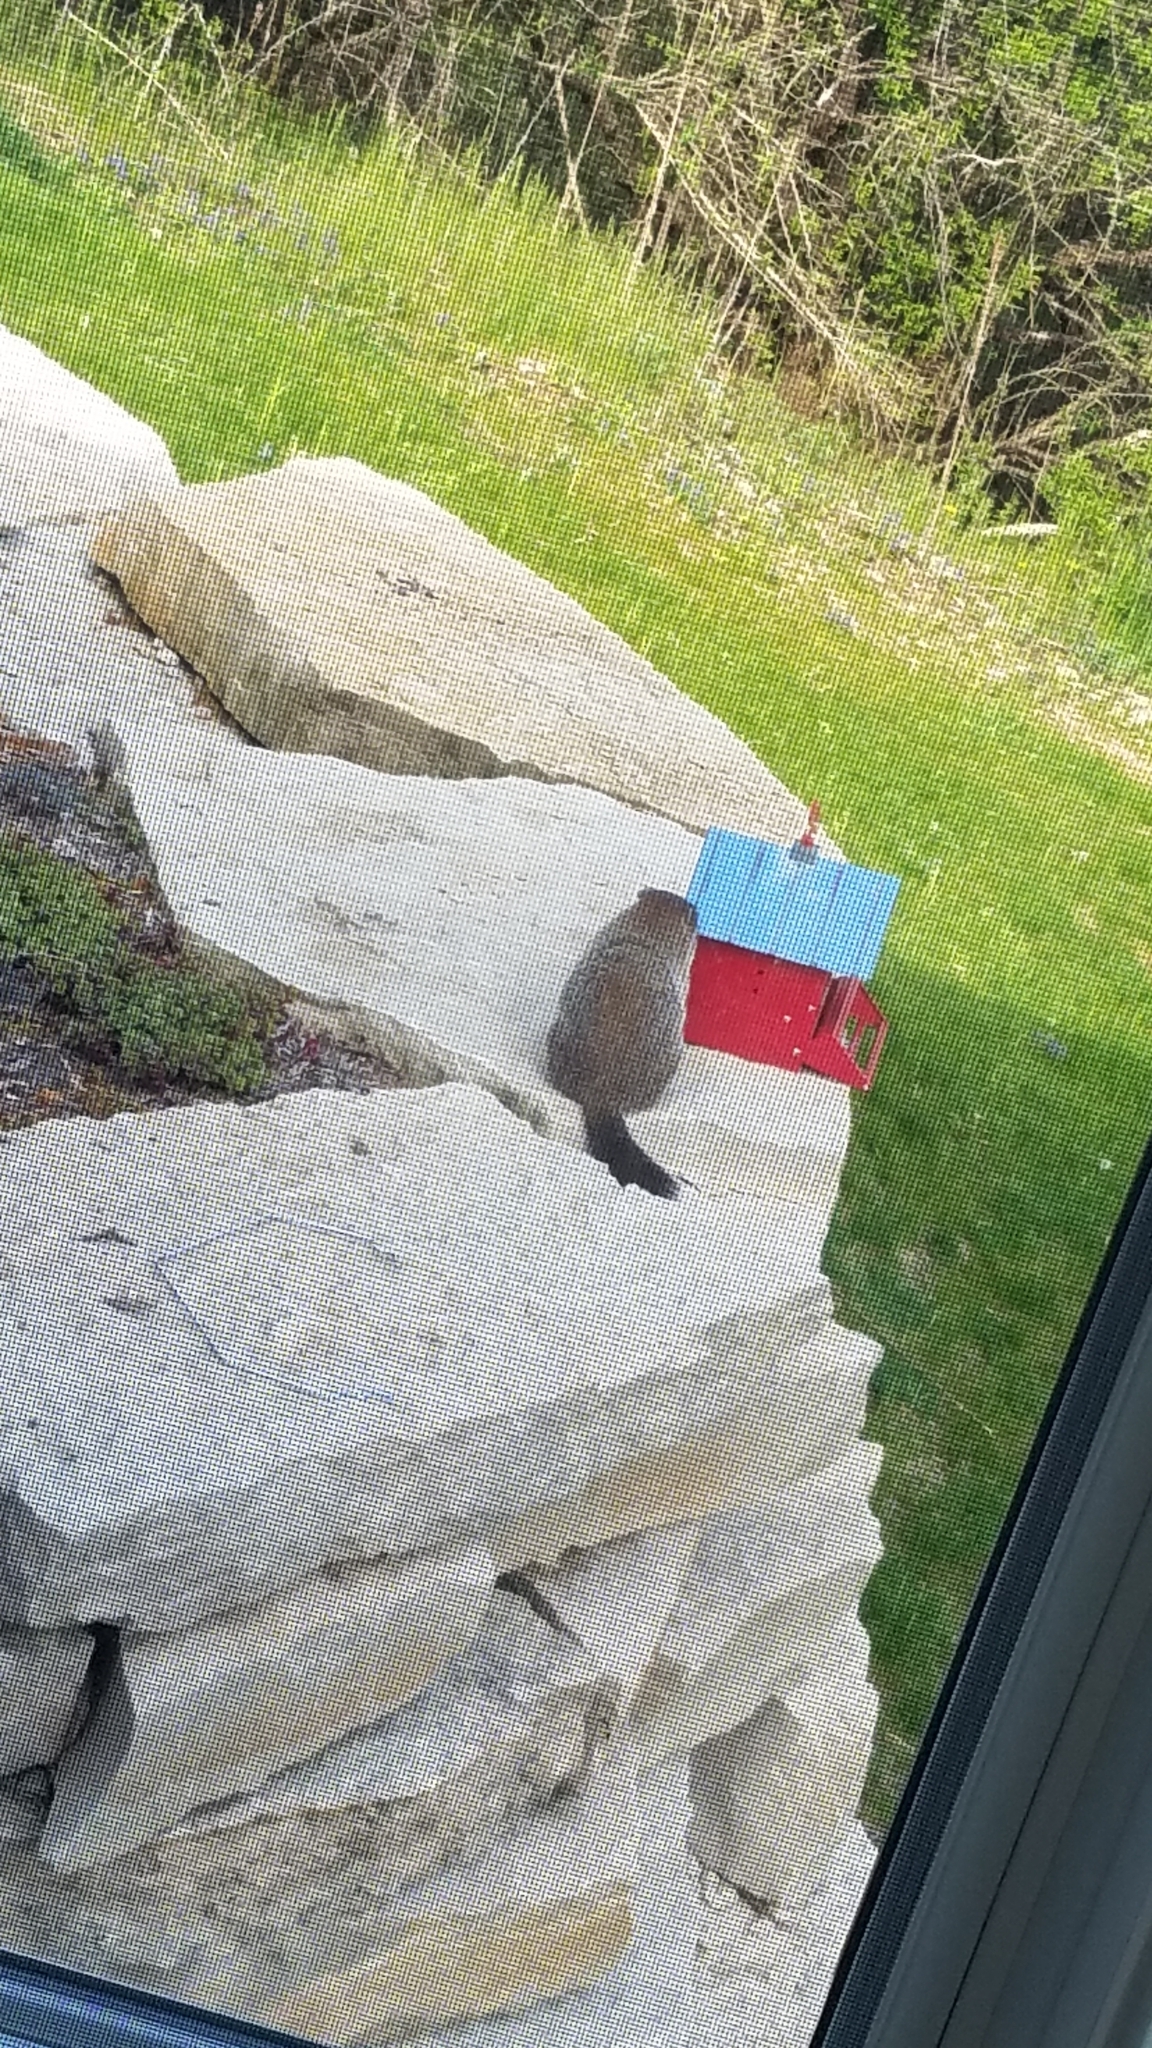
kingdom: Animalia
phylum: Chordata
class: Mammalia
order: Rodentia
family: Sciuridae
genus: Marmota
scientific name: Marmota monax
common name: Groundhog
